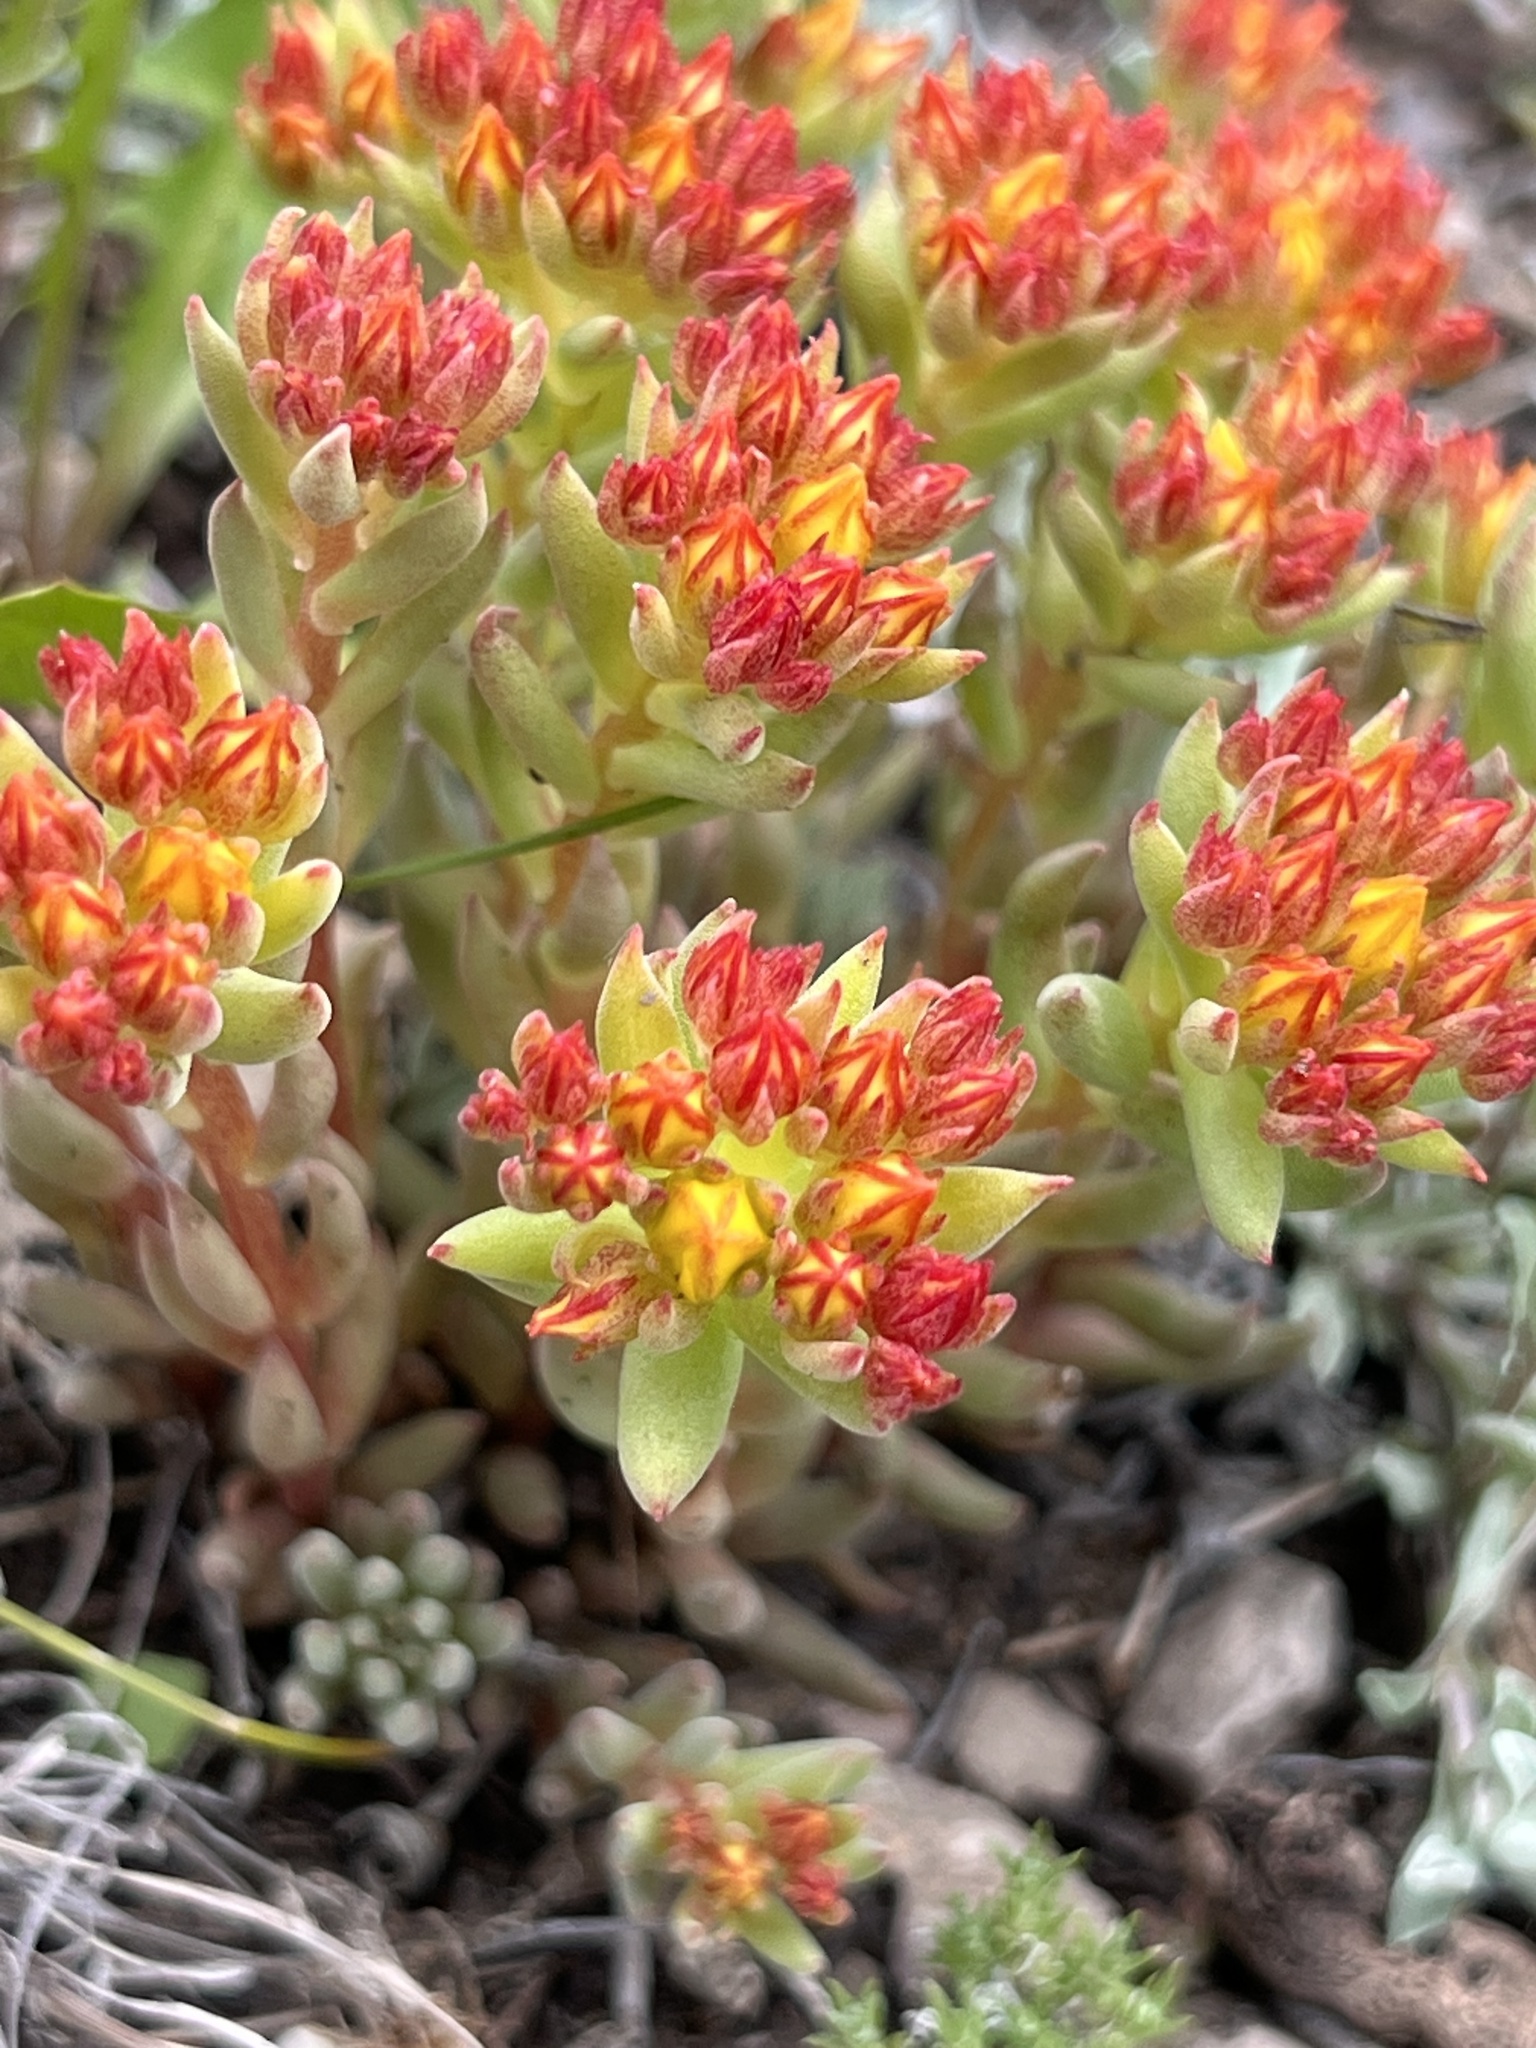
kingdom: Plantae
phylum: Tracheophyta
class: Magnoliopsida
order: Saxifragales
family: Crassulaceae
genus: Sedum
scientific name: Sedum lanceolatum
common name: Common stonecrop
